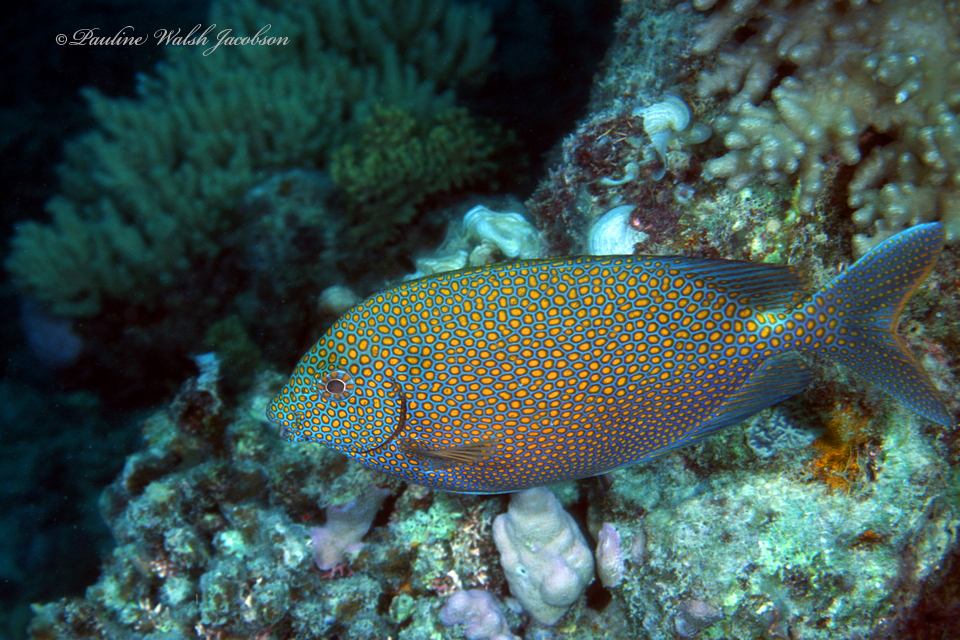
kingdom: Animalia
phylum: Chordata
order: Perciformes
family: Siganidae
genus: Siganus
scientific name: Siganus punctatus
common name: Gold-spotted rabbitfish
